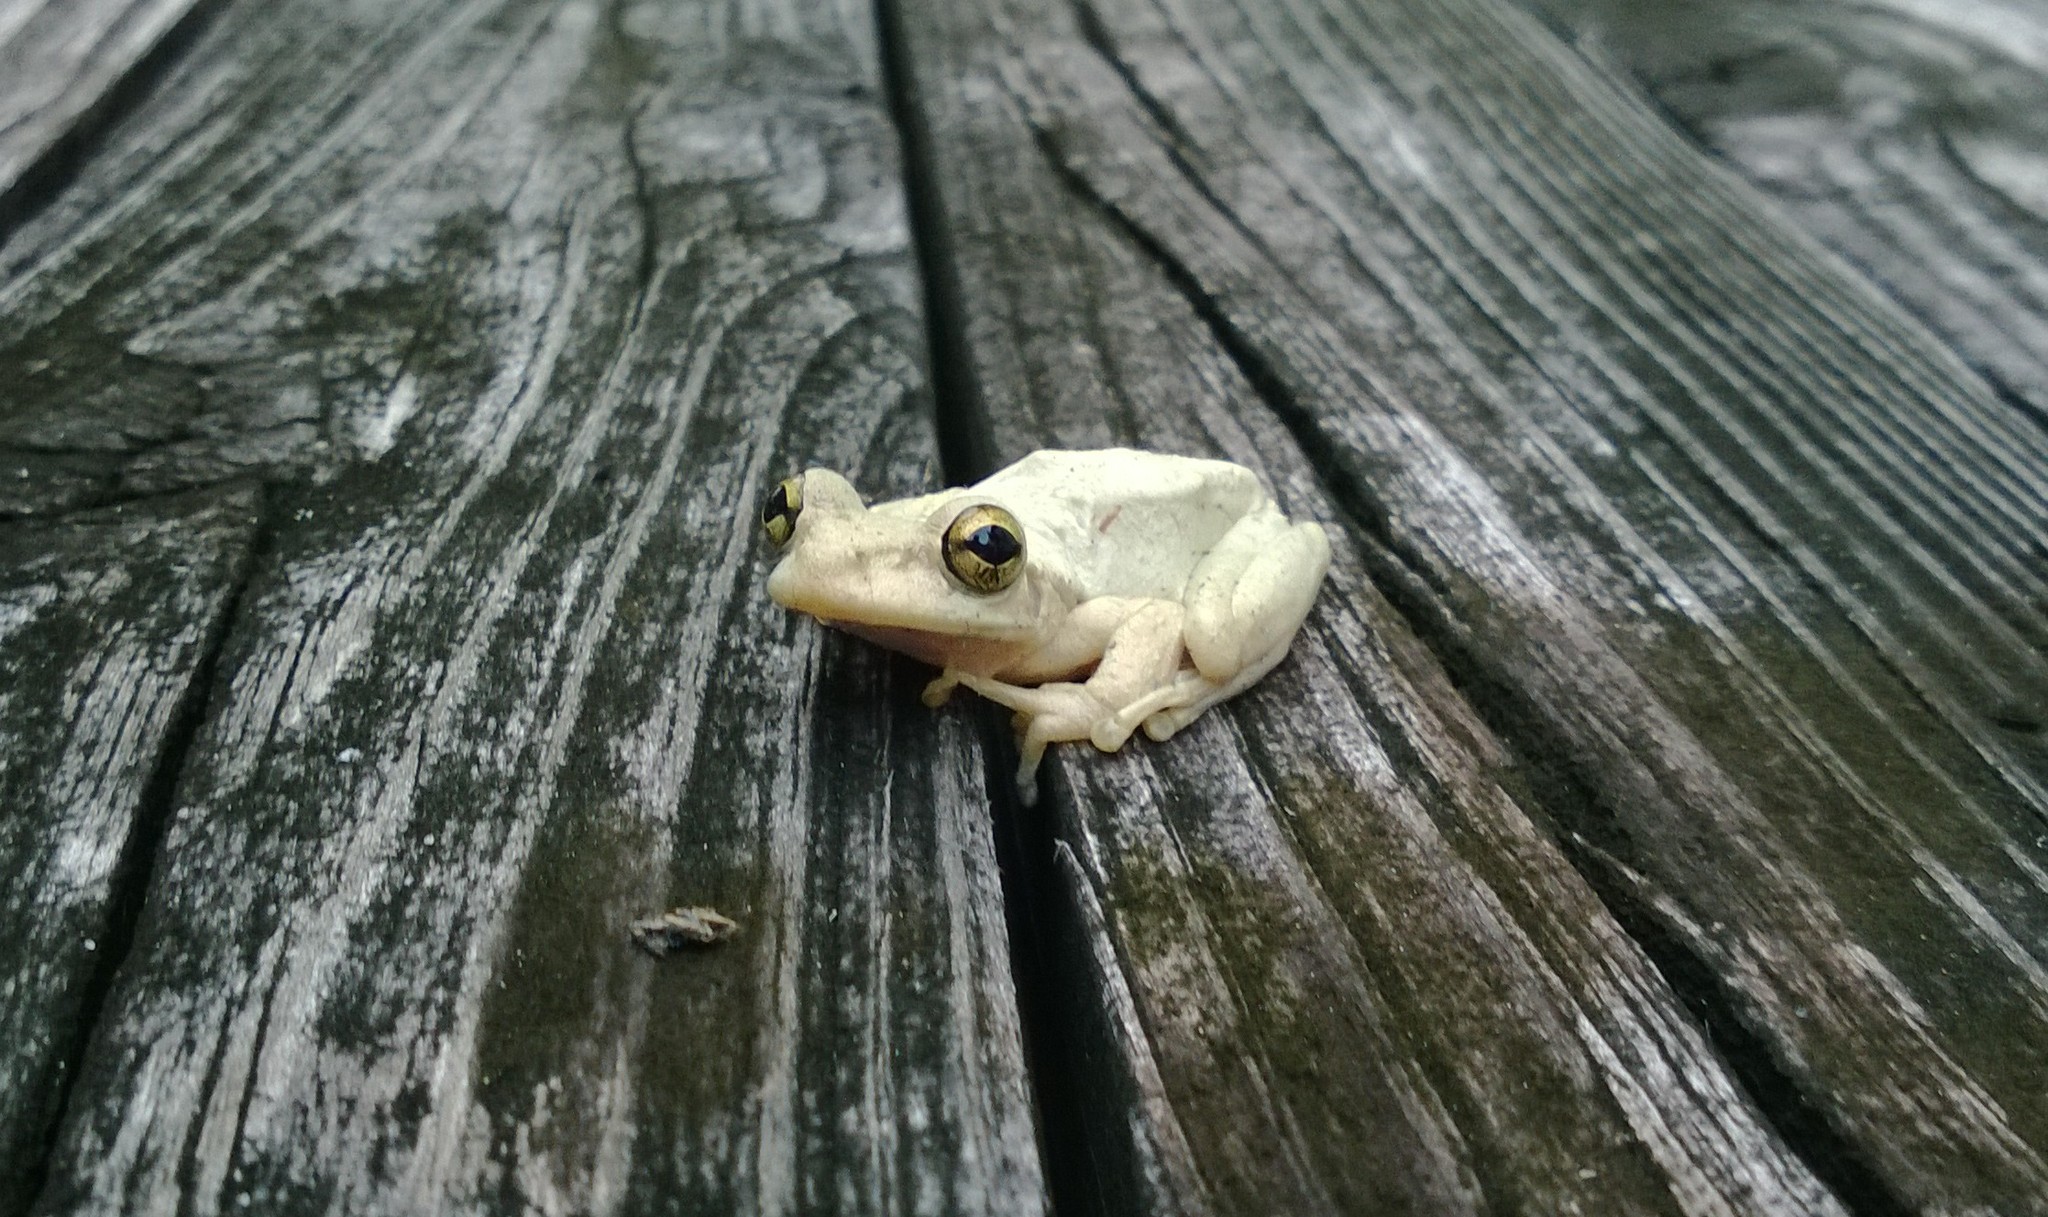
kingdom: Animalia
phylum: Chordata
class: Amphibia
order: Anura
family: Hylidae
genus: Osteopilus
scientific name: Osteopilus septentrionalis
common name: Cuban treefrog
